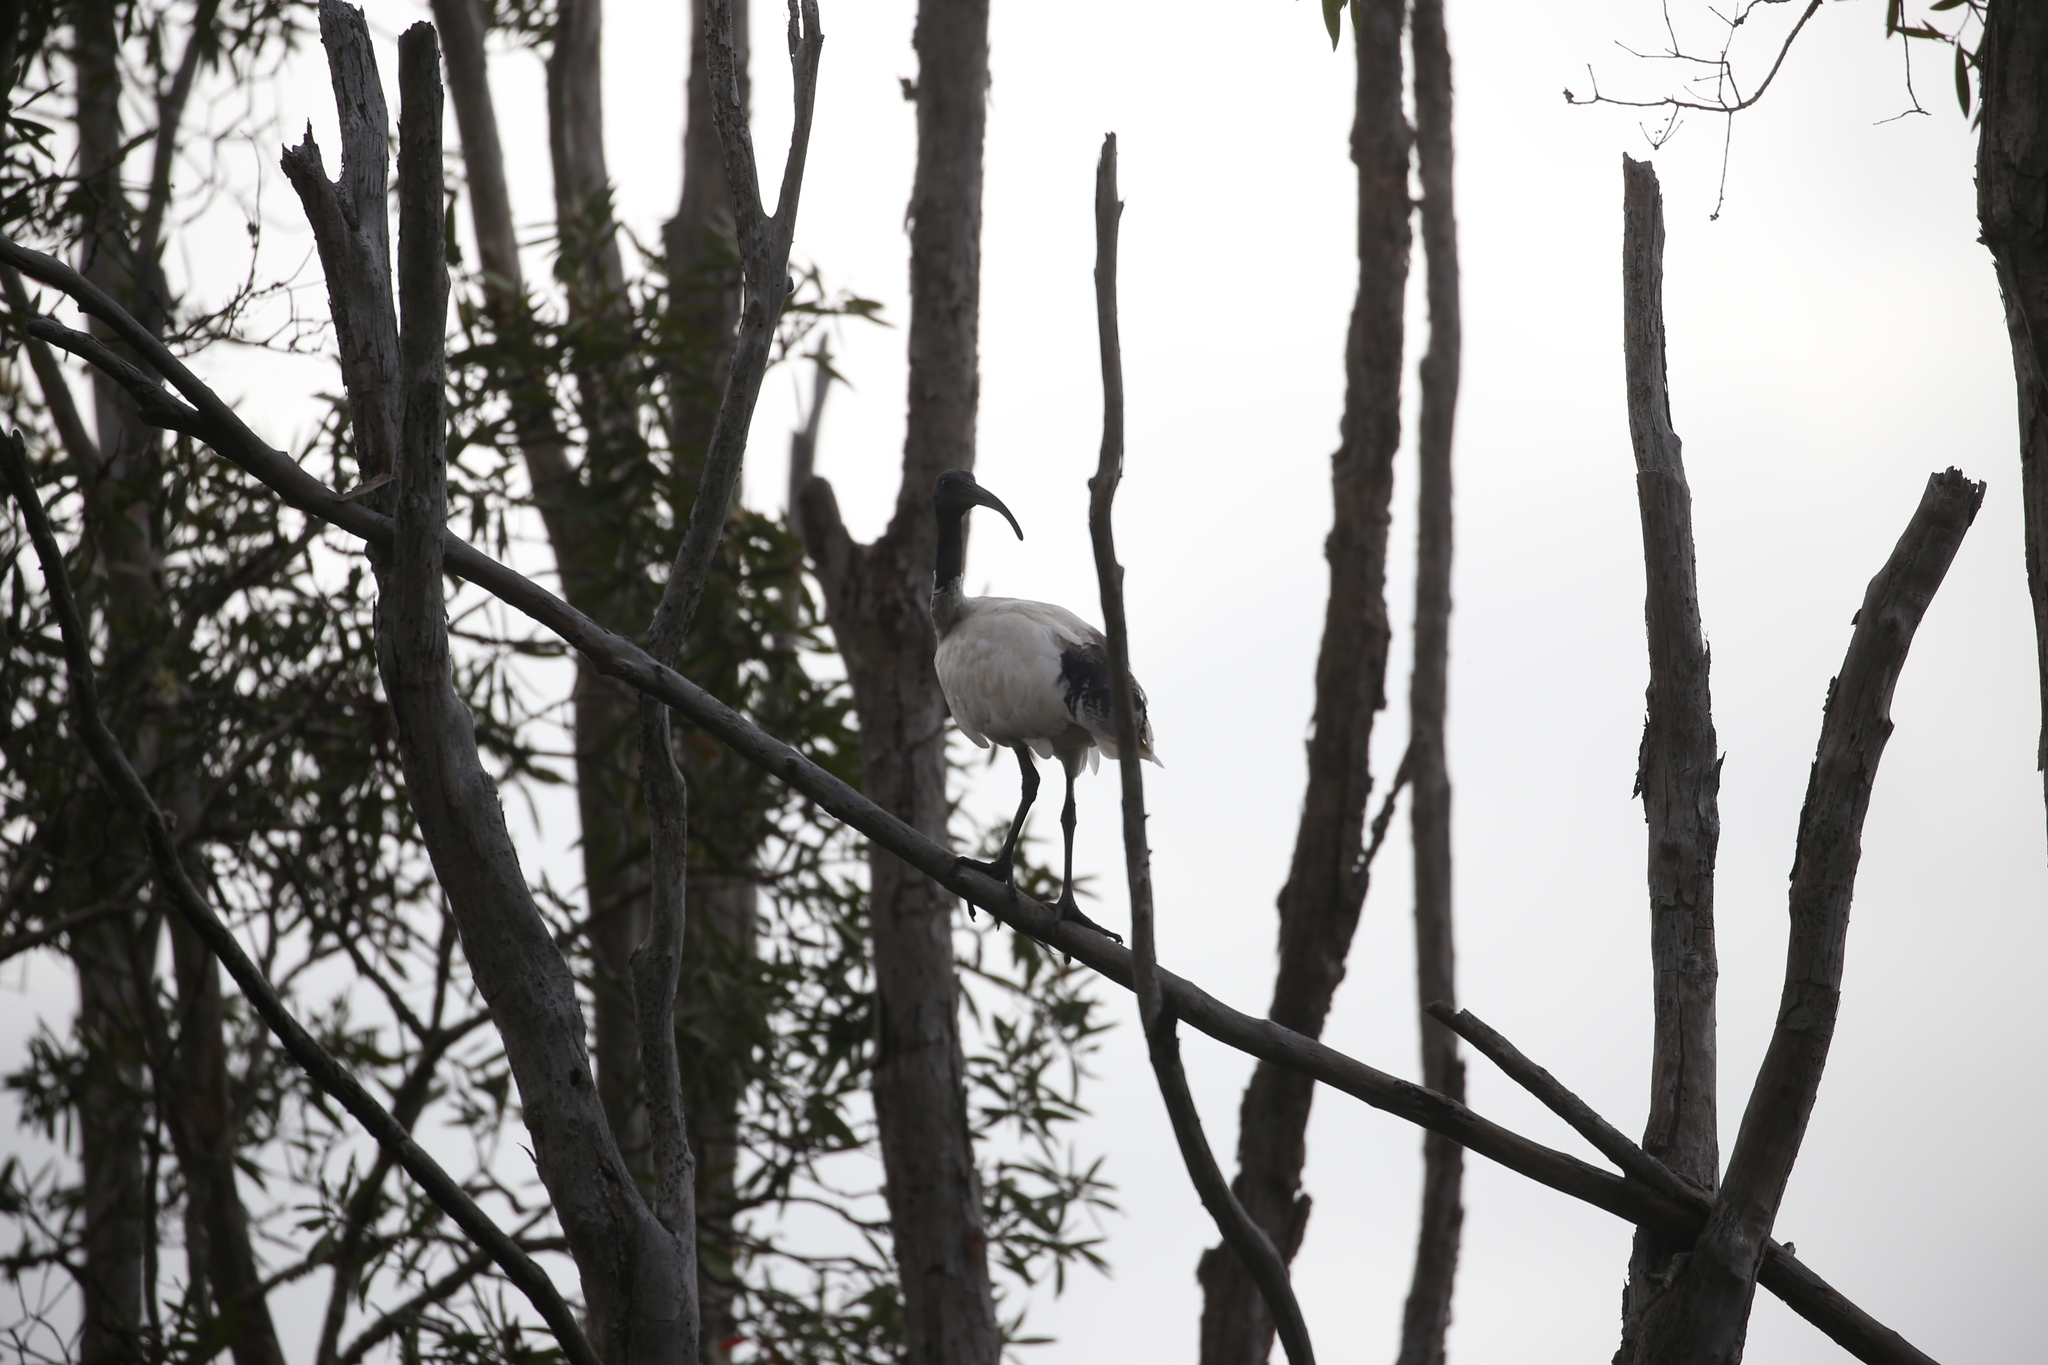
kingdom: Animalia
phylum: Chordata
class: Aves
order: Pelecaniformes
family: Threskiornithidae
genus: Threskiornis
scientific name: Threskiornis molucca
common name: Australian white ibis
